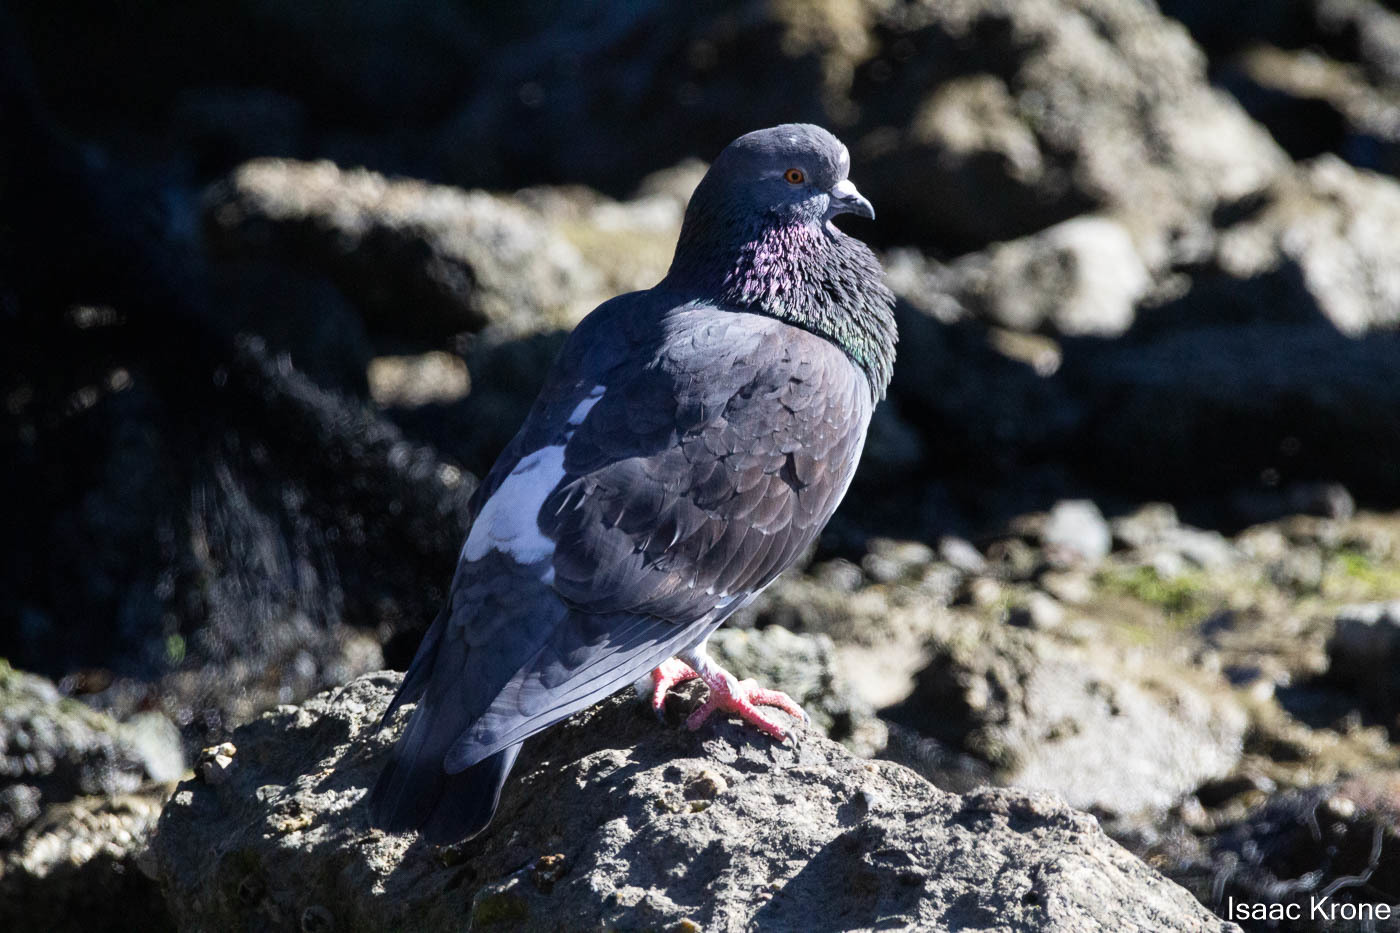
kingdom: Animalia
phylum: Chordata
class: Aves
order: Columbiformes
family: Columbidae
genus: Columba
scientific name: Columba livia
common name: Rock pigeon
